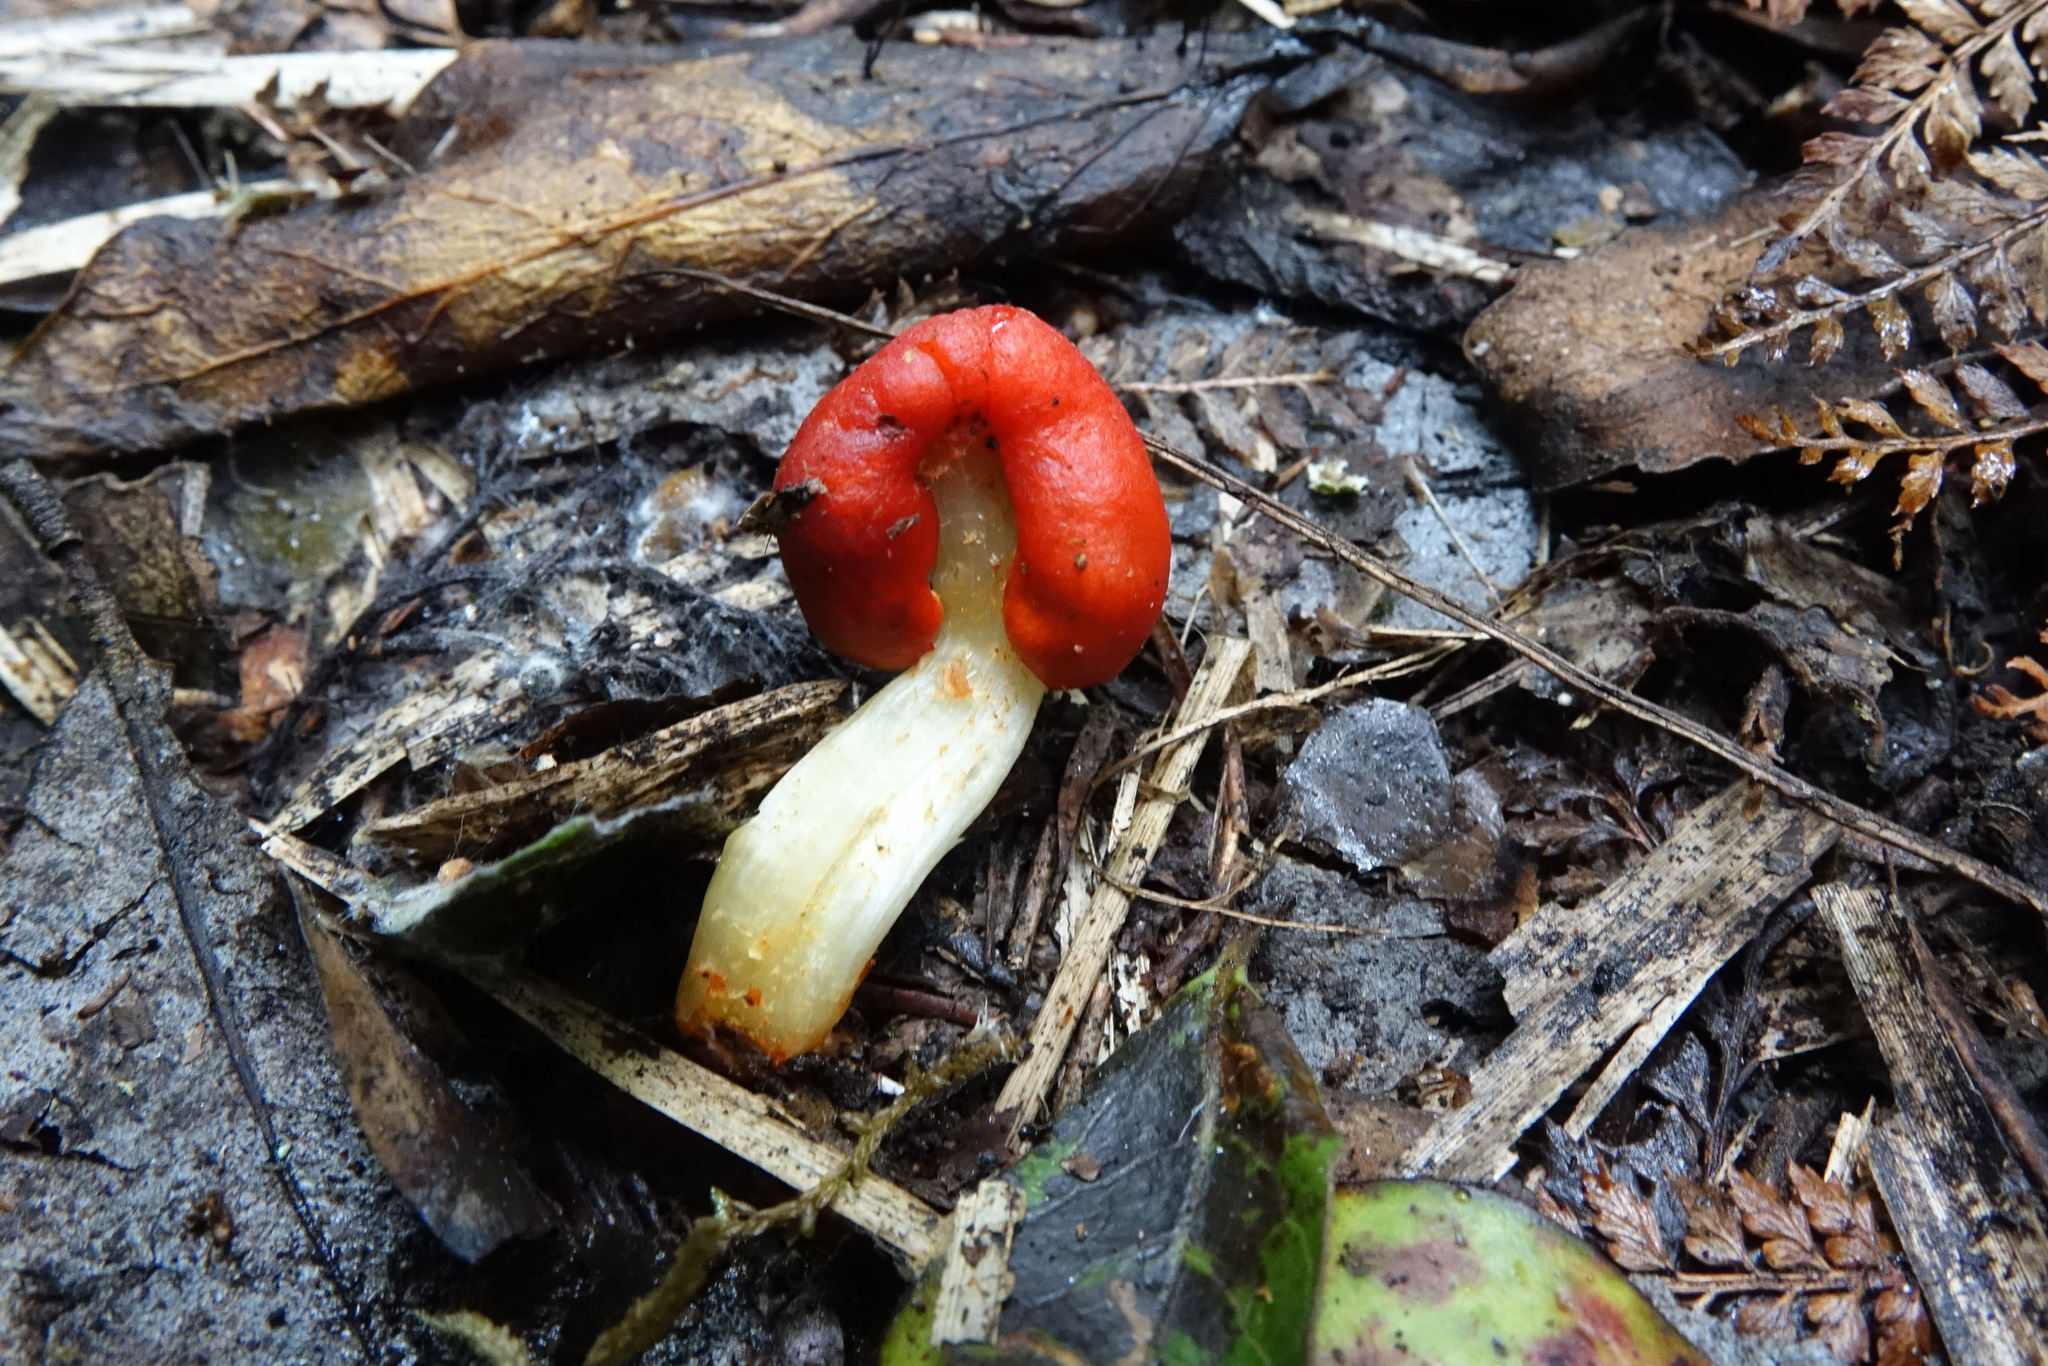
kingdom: Fungi
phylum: Basidiomycota
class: Agaricomycetes
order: Agaricales
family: Strophariaceae
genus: Leratiomyces
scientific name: Leratiomyces erythrocephalus
